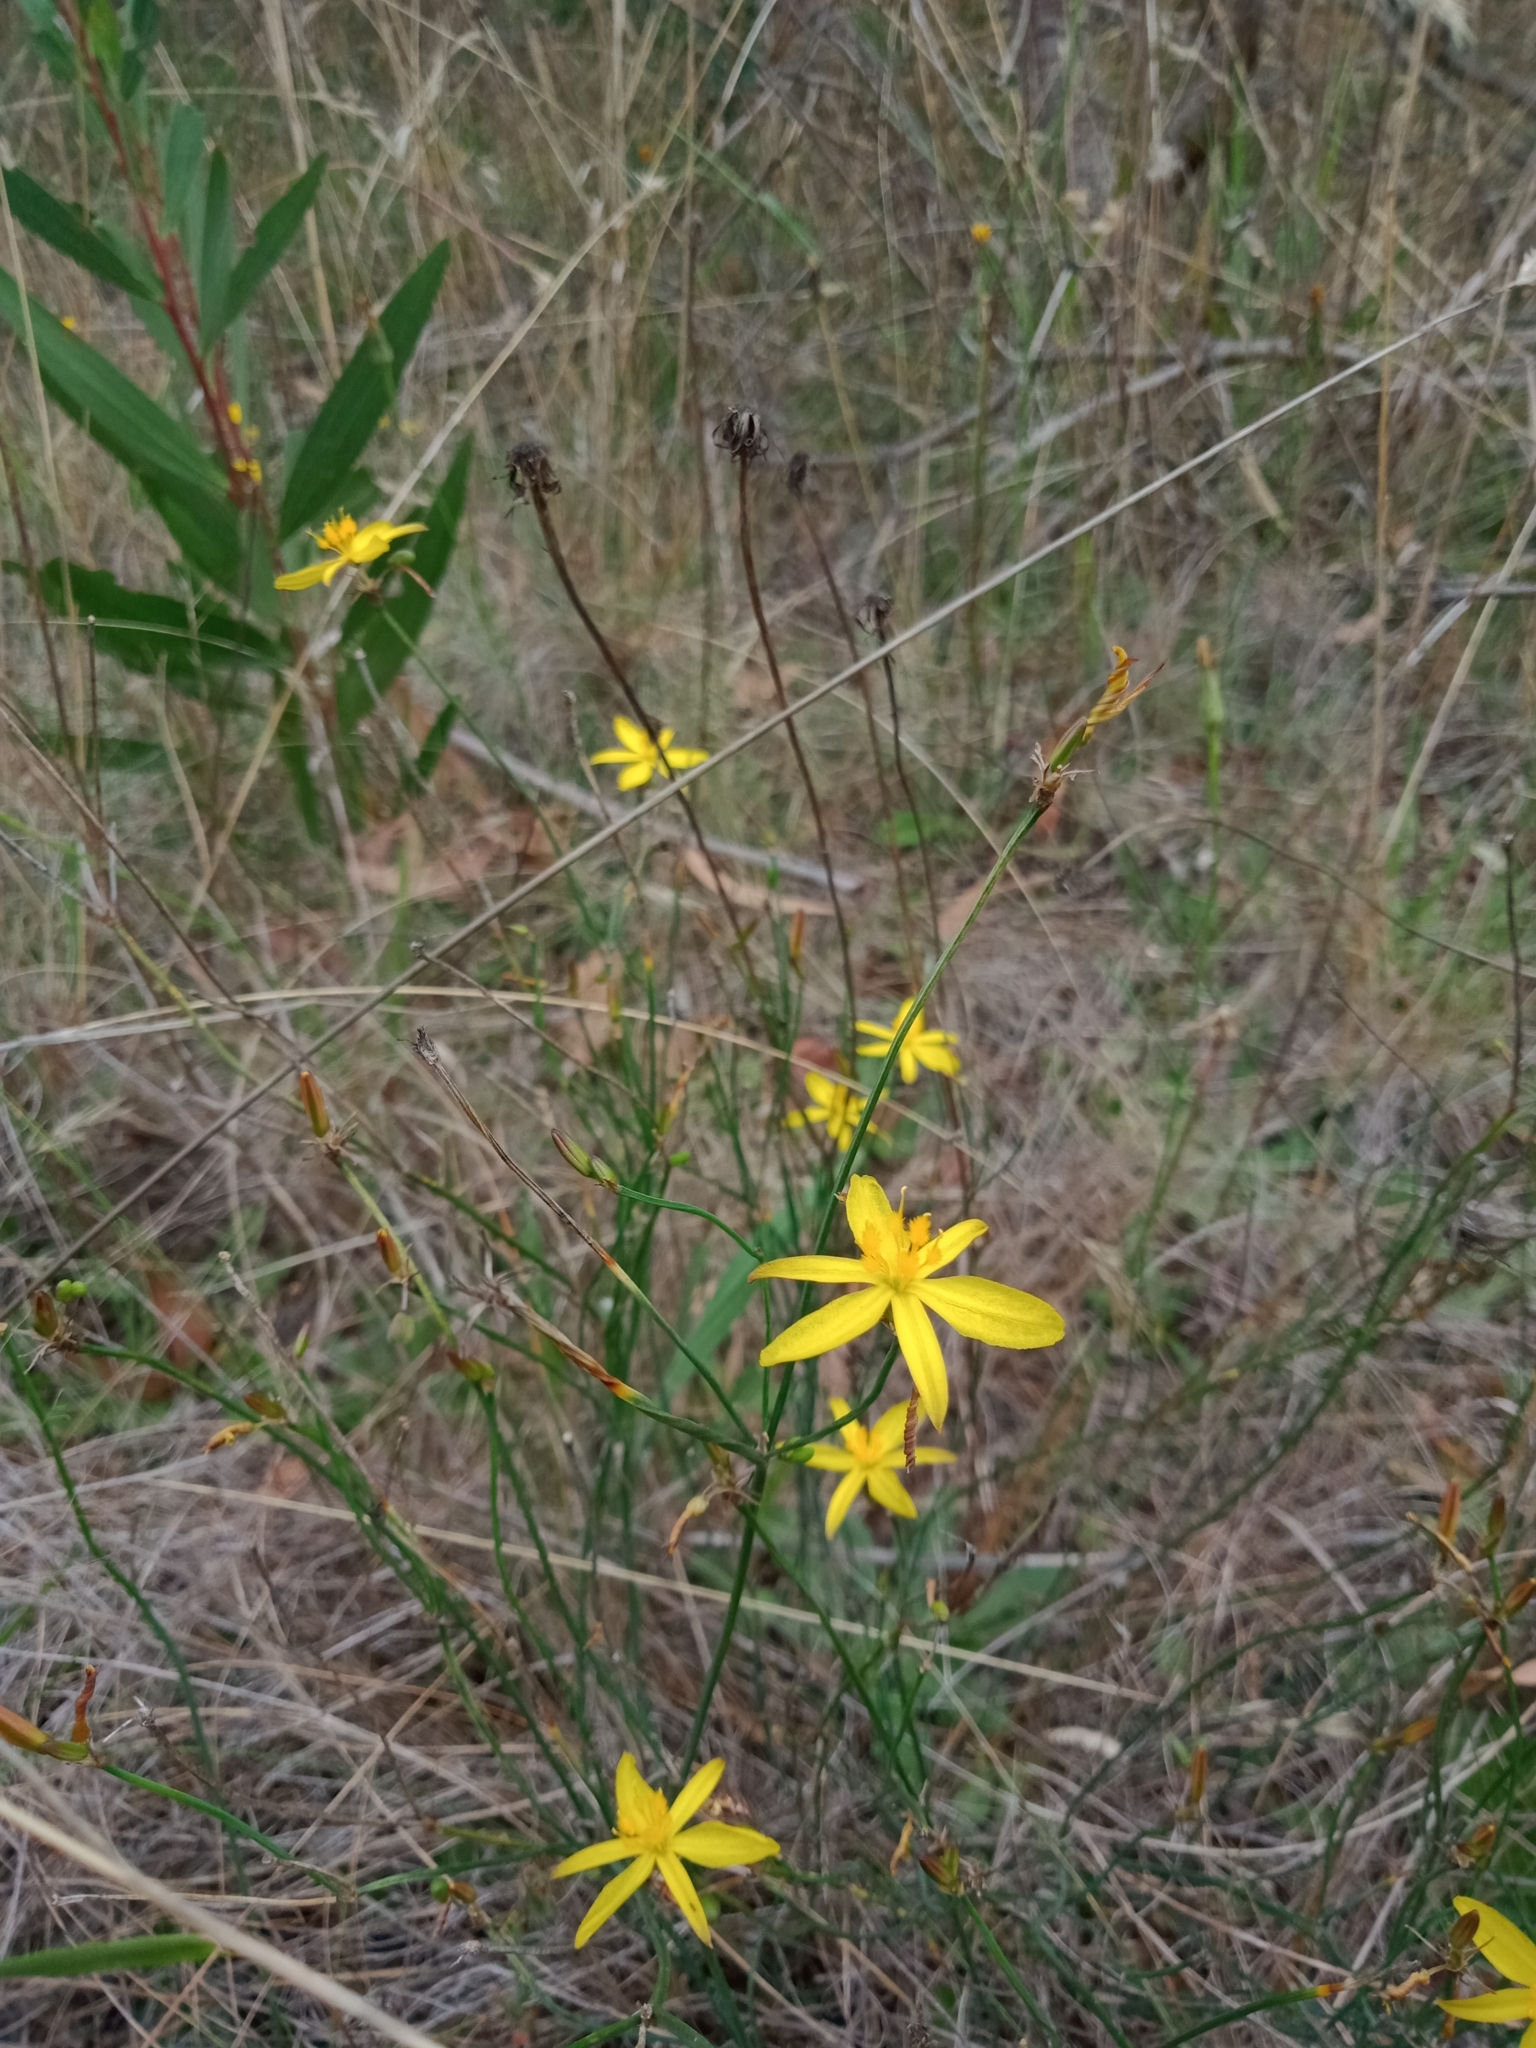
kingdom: Plantae
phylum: Tracheophyta
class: Liliopsida
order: Asparagales
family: Asphodelaceae
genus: Tricoryne
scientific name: Tricoryne elatior
